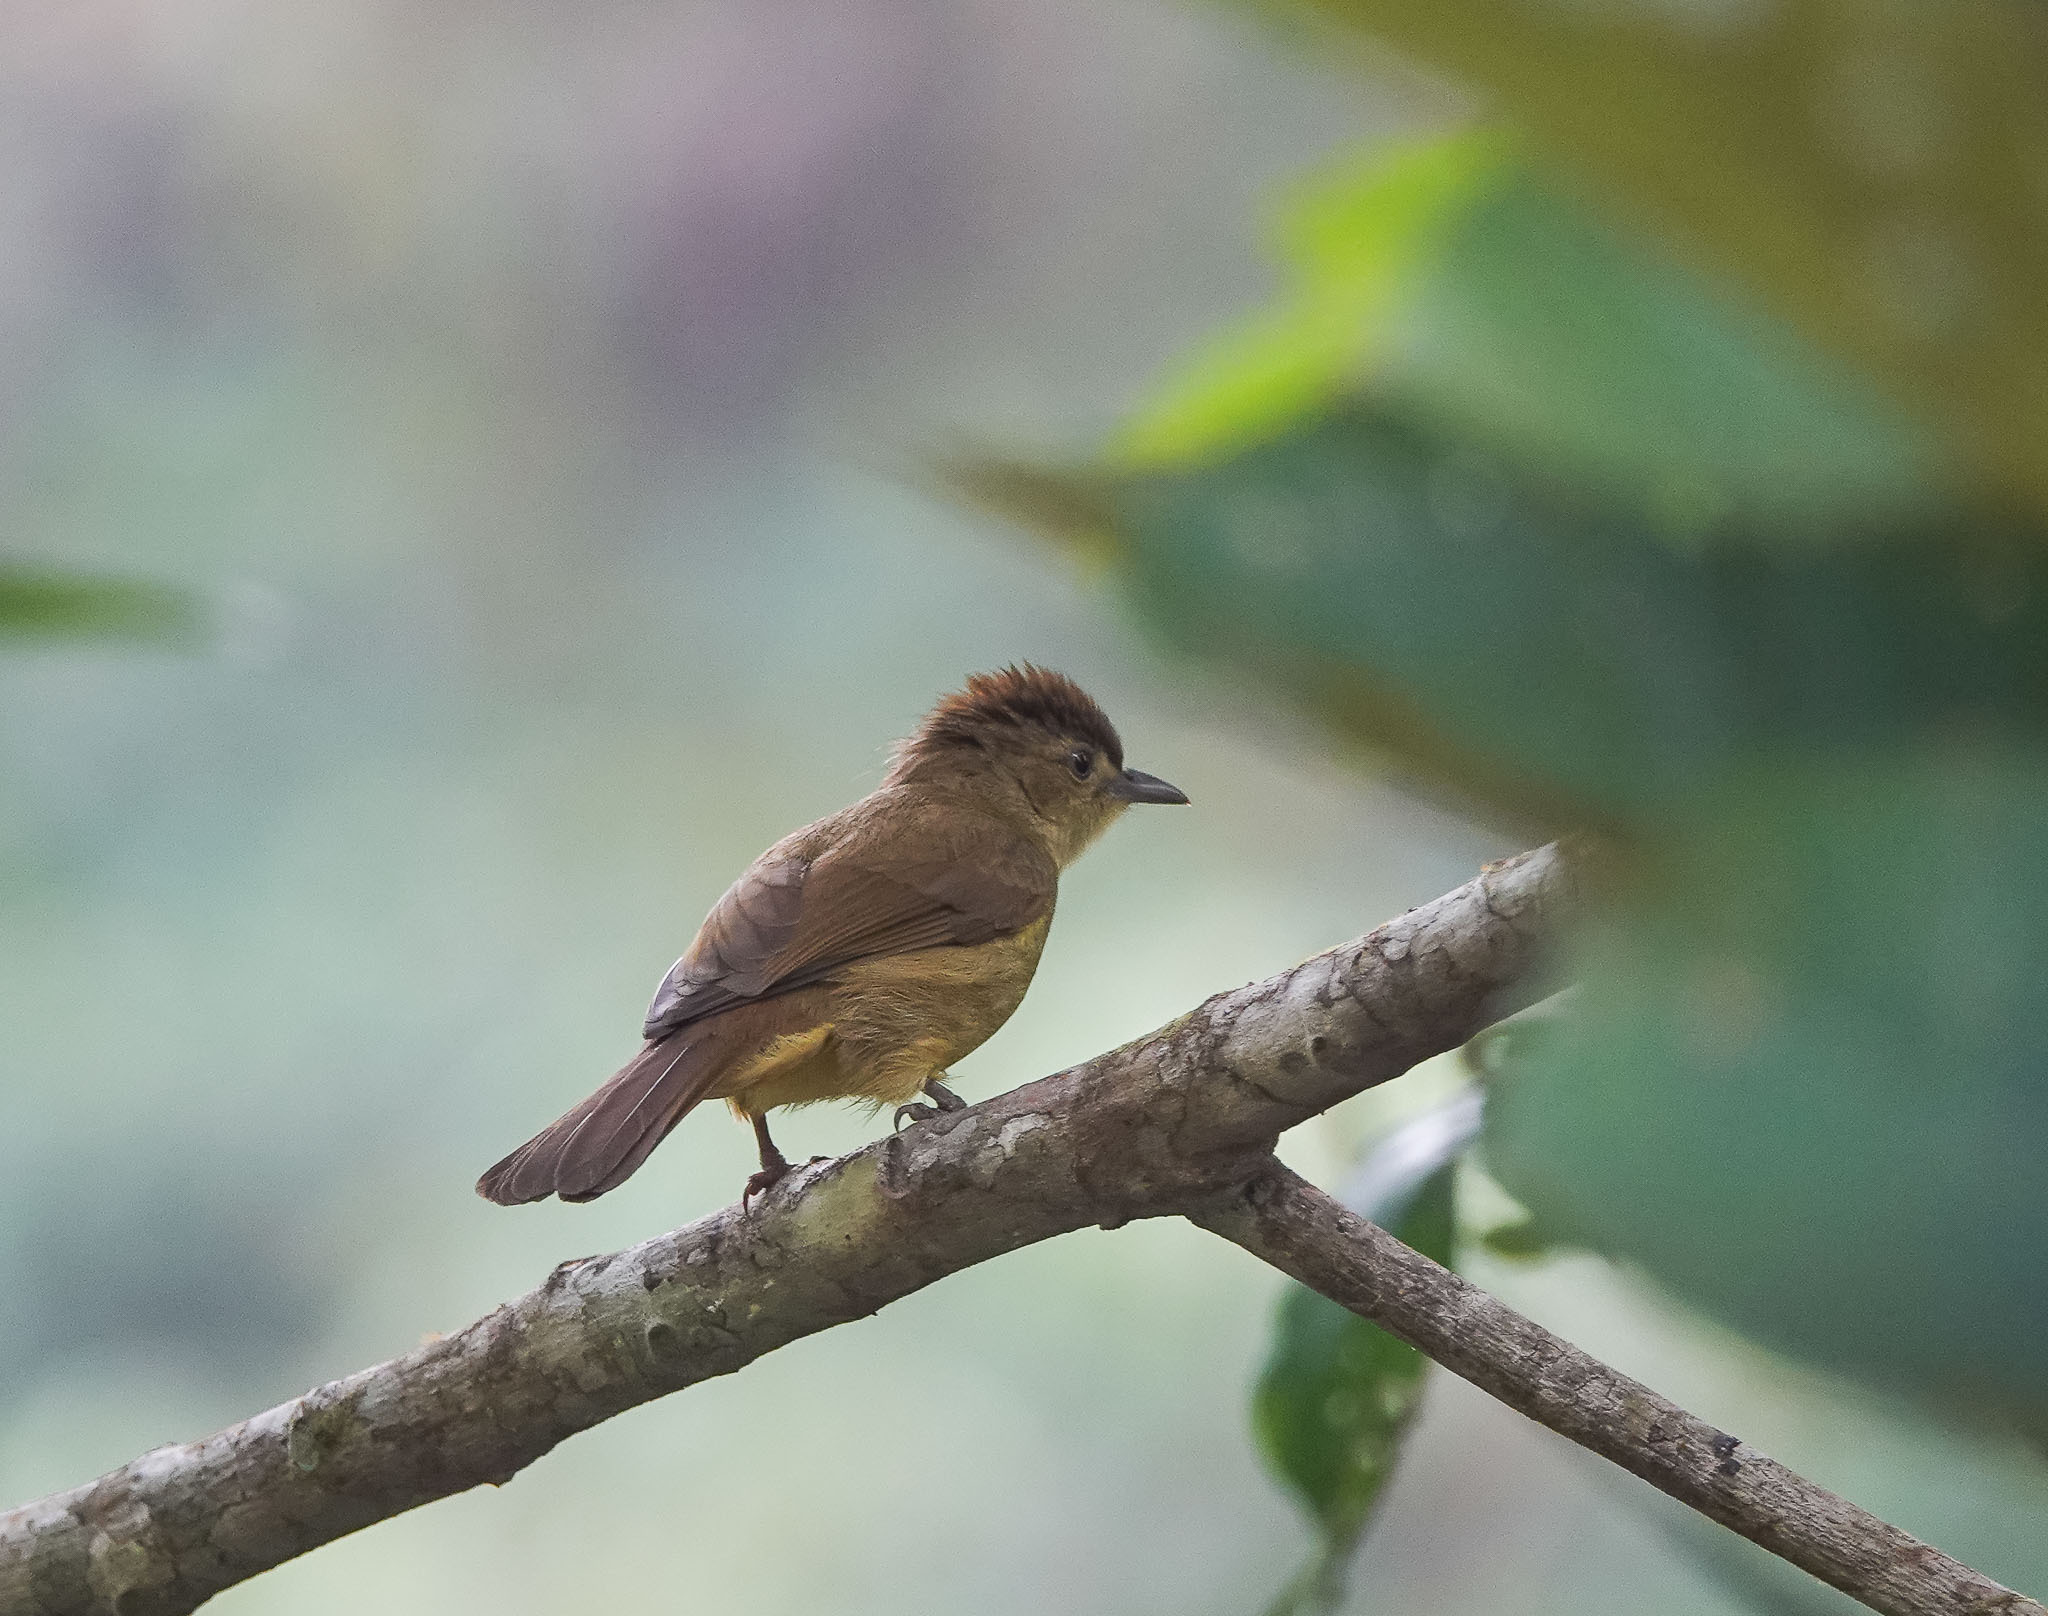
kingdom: Animalia
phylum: Chordata
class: Aves
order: Passeriformes
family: Pycnonotidae
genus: Iole
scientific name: Iole virescens
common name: Olive bulbul
